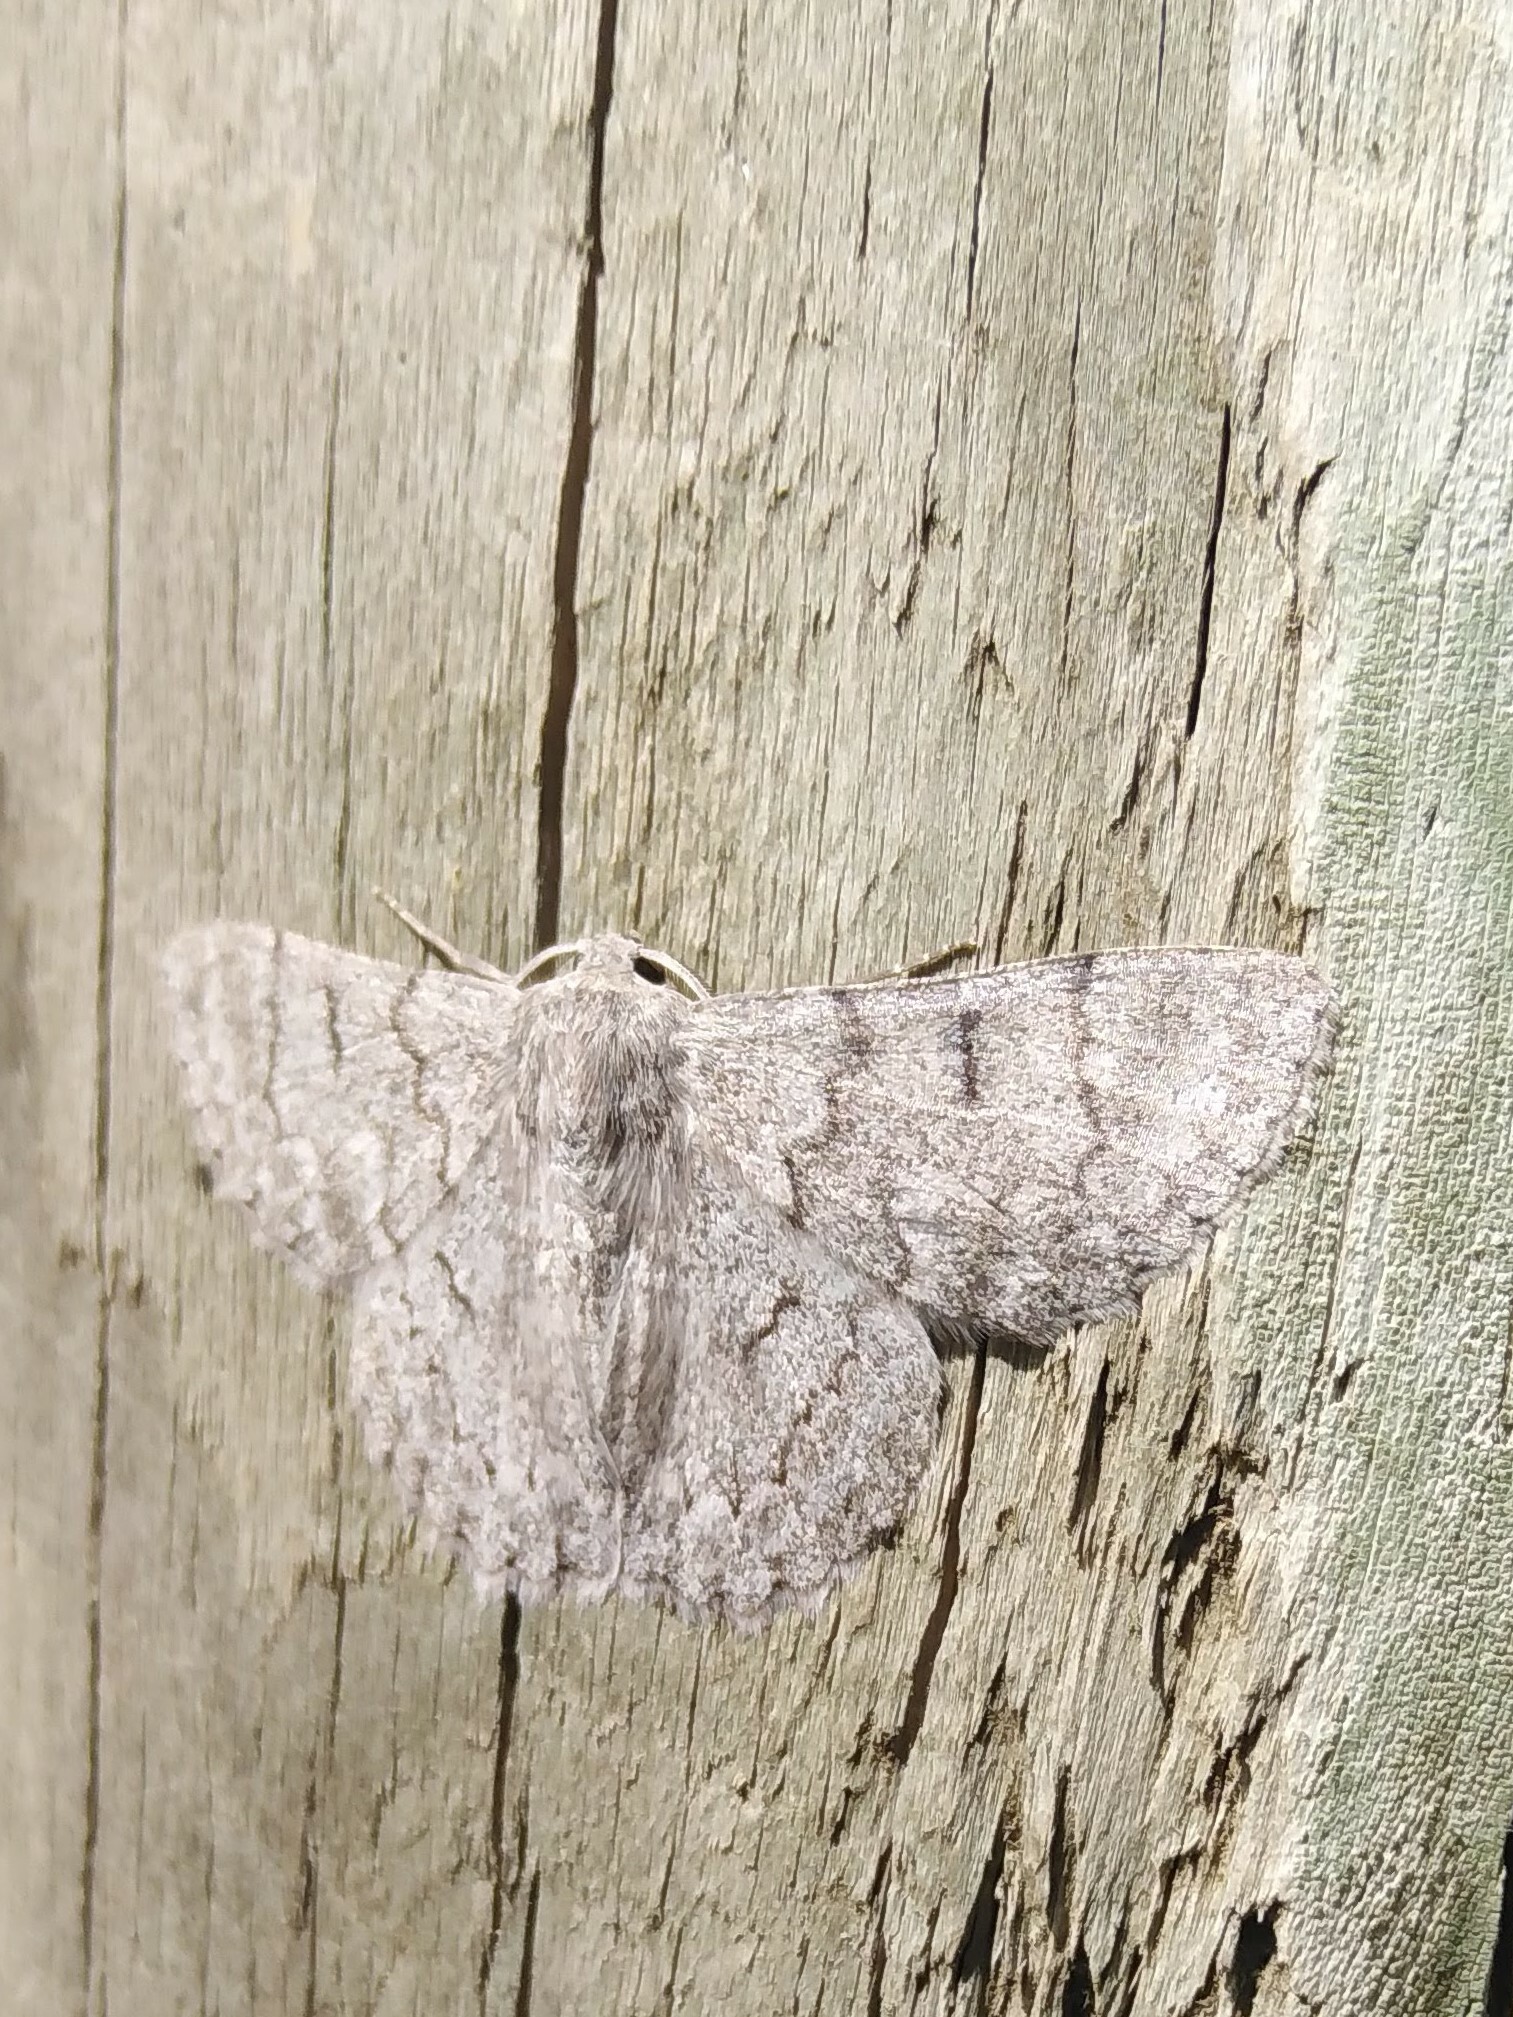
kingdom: Animalia
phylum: Arthropoda
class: Insecta
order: Lepidoptera
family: Geometridae
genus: Crypsiphona
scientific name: Crypsiphona ocultaria
